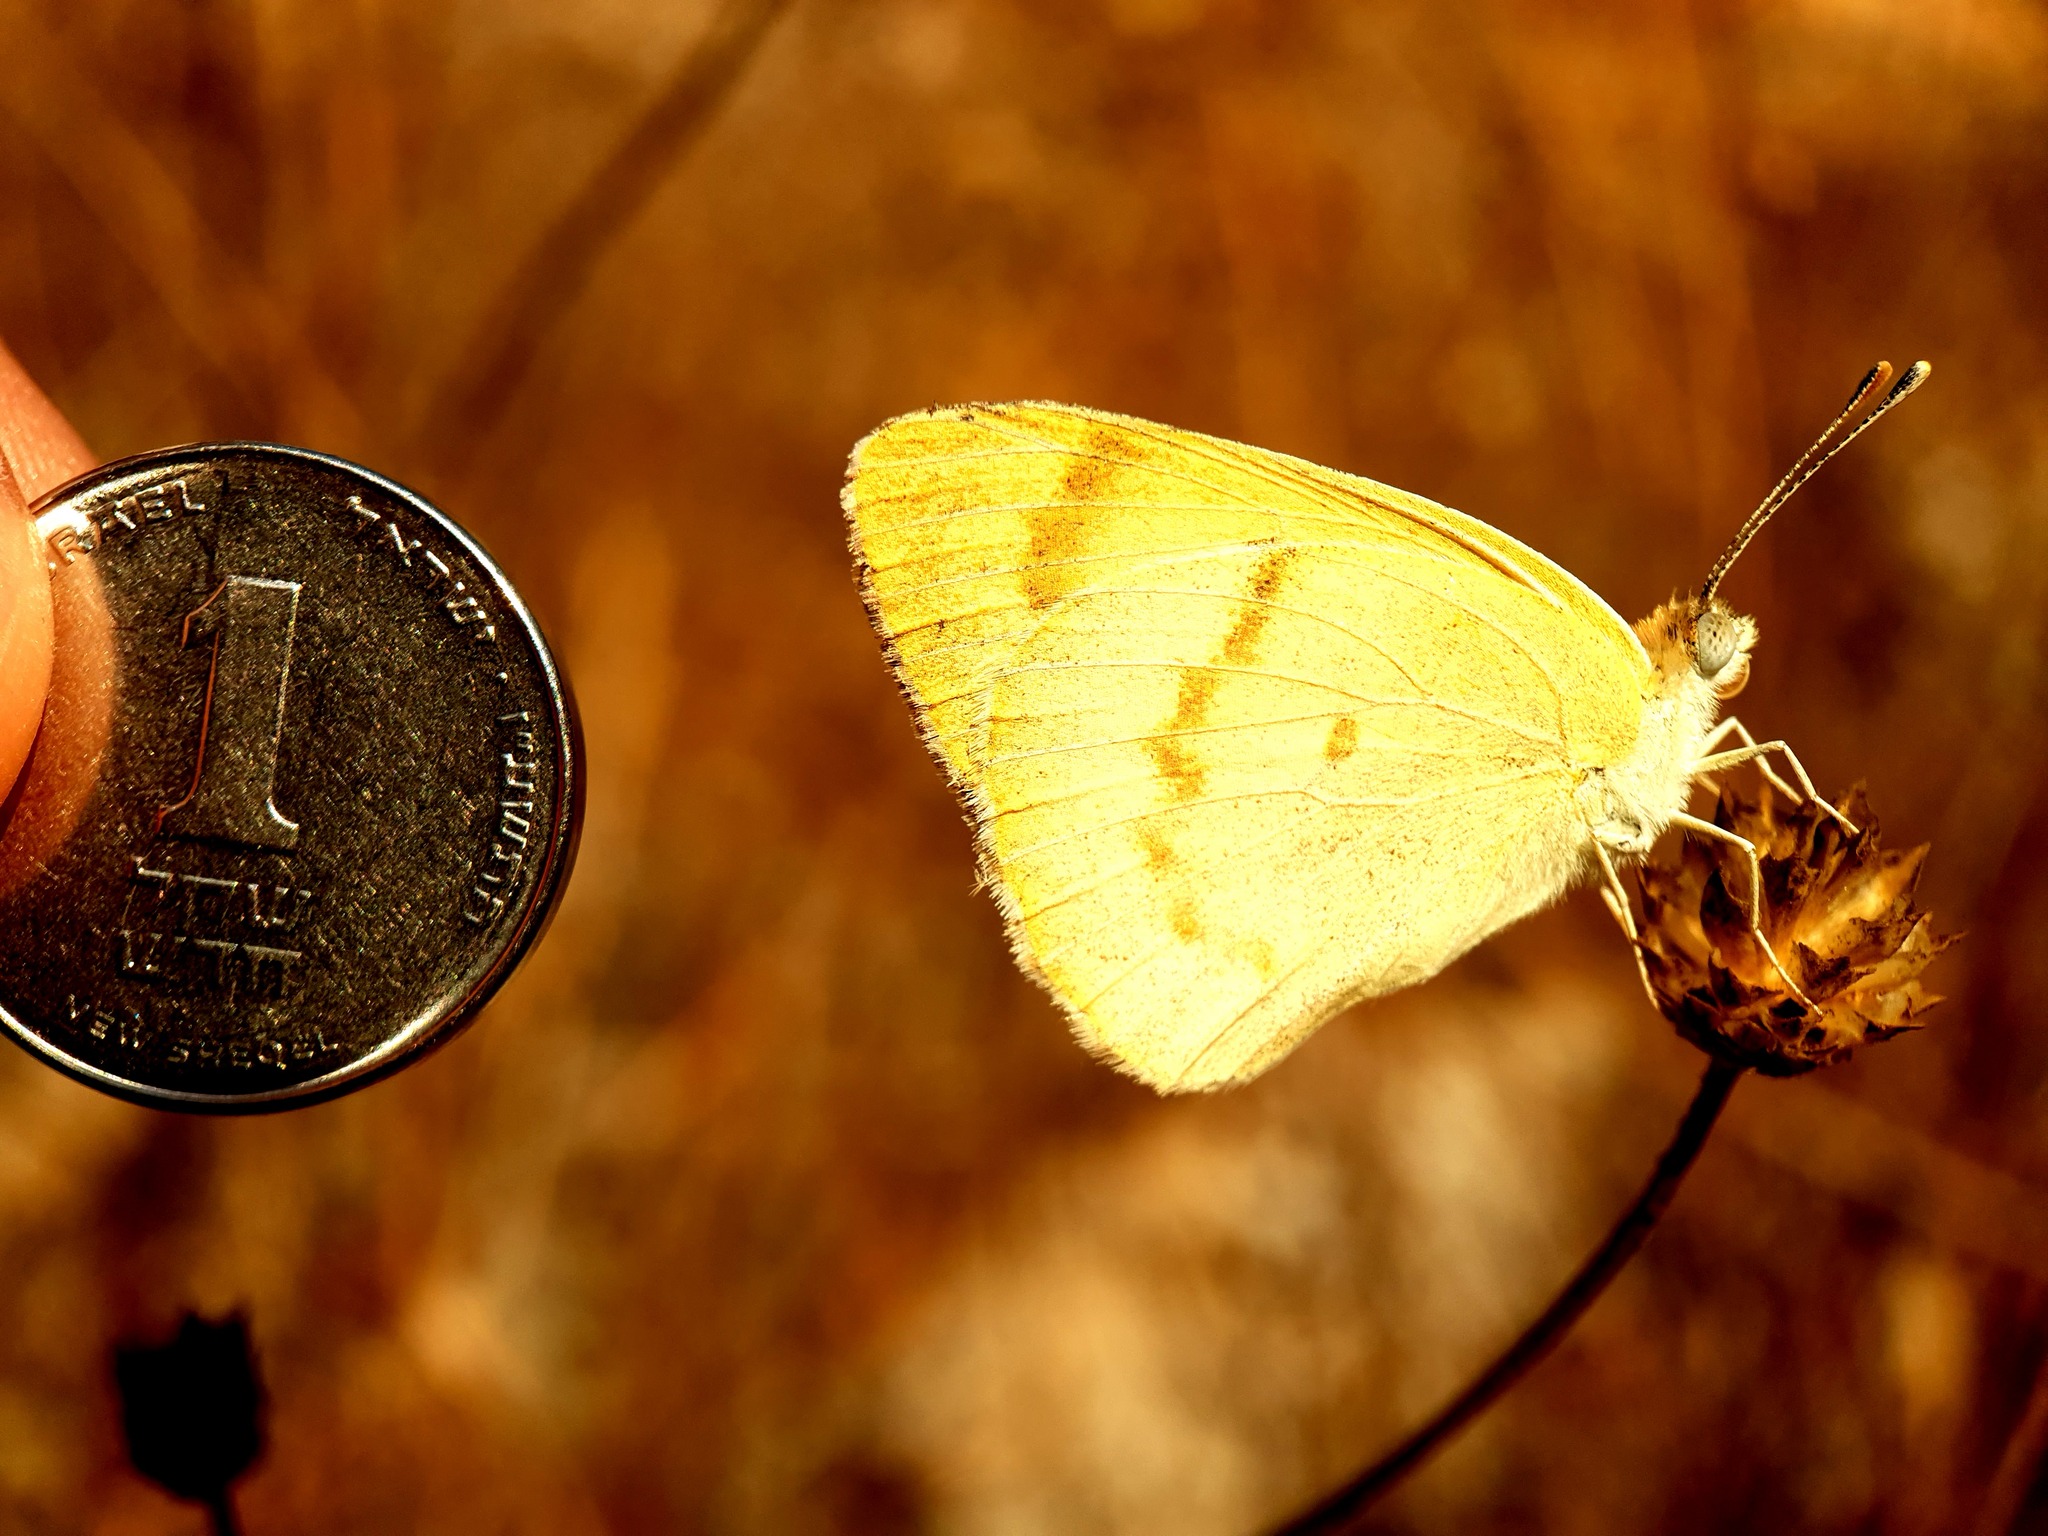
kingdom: Animalia
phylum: Arthropoda
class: Insecta
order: Lepidoptera
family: Pieridae
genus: Colotis
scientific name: Colotis fausta
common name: Large salmon arab
